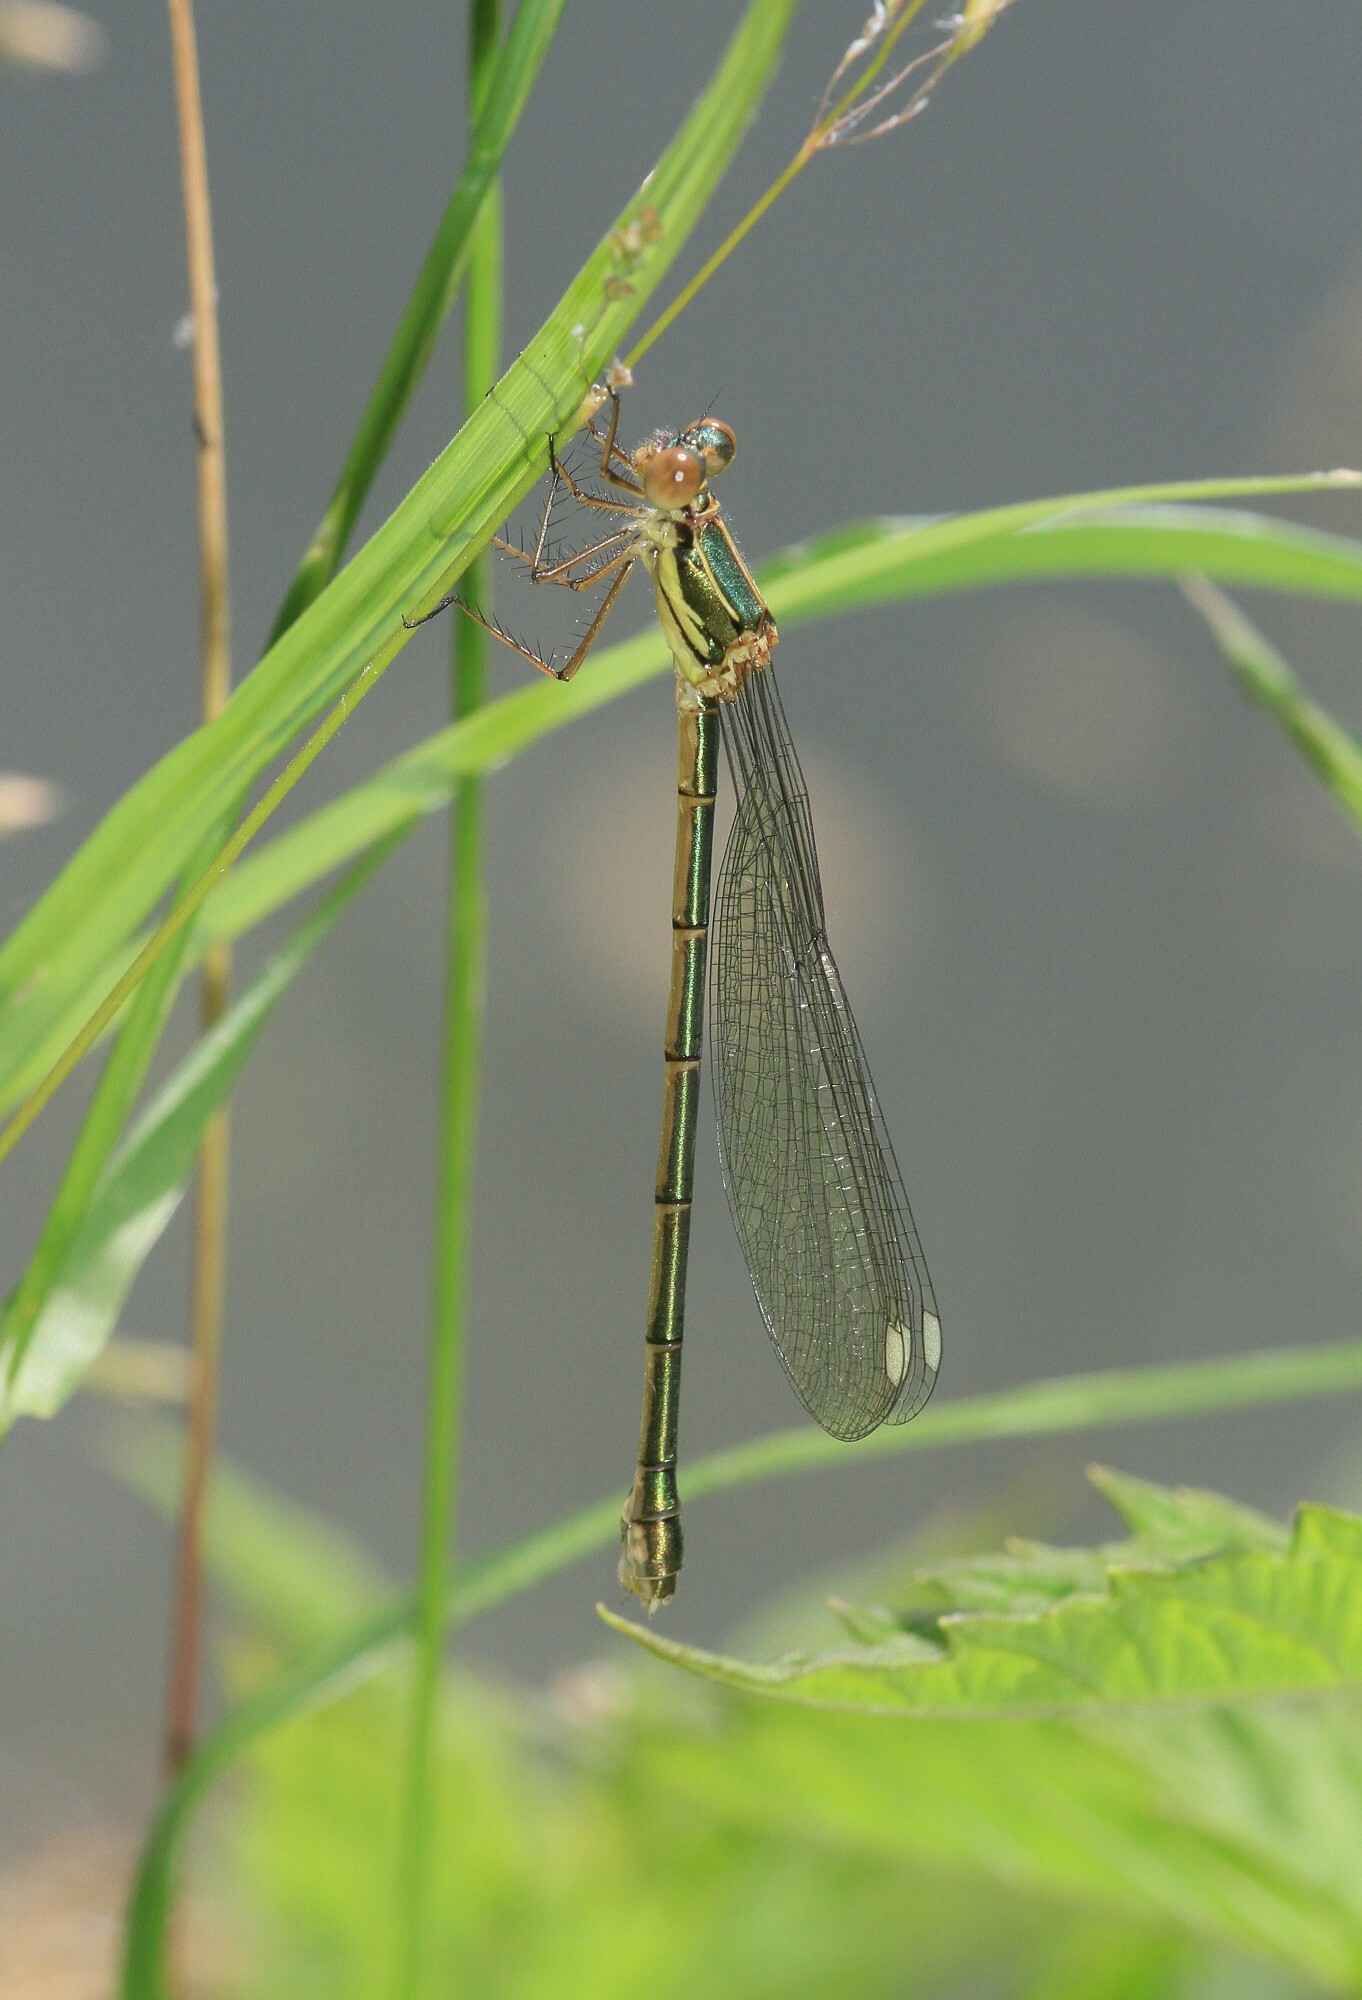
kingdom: Animalia
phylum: Arthropoda
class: Insecta
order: Odonata
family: Lestidae
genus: Chalcolestes
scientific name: Chalcolestes viridis
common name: Green emerald damselfly
